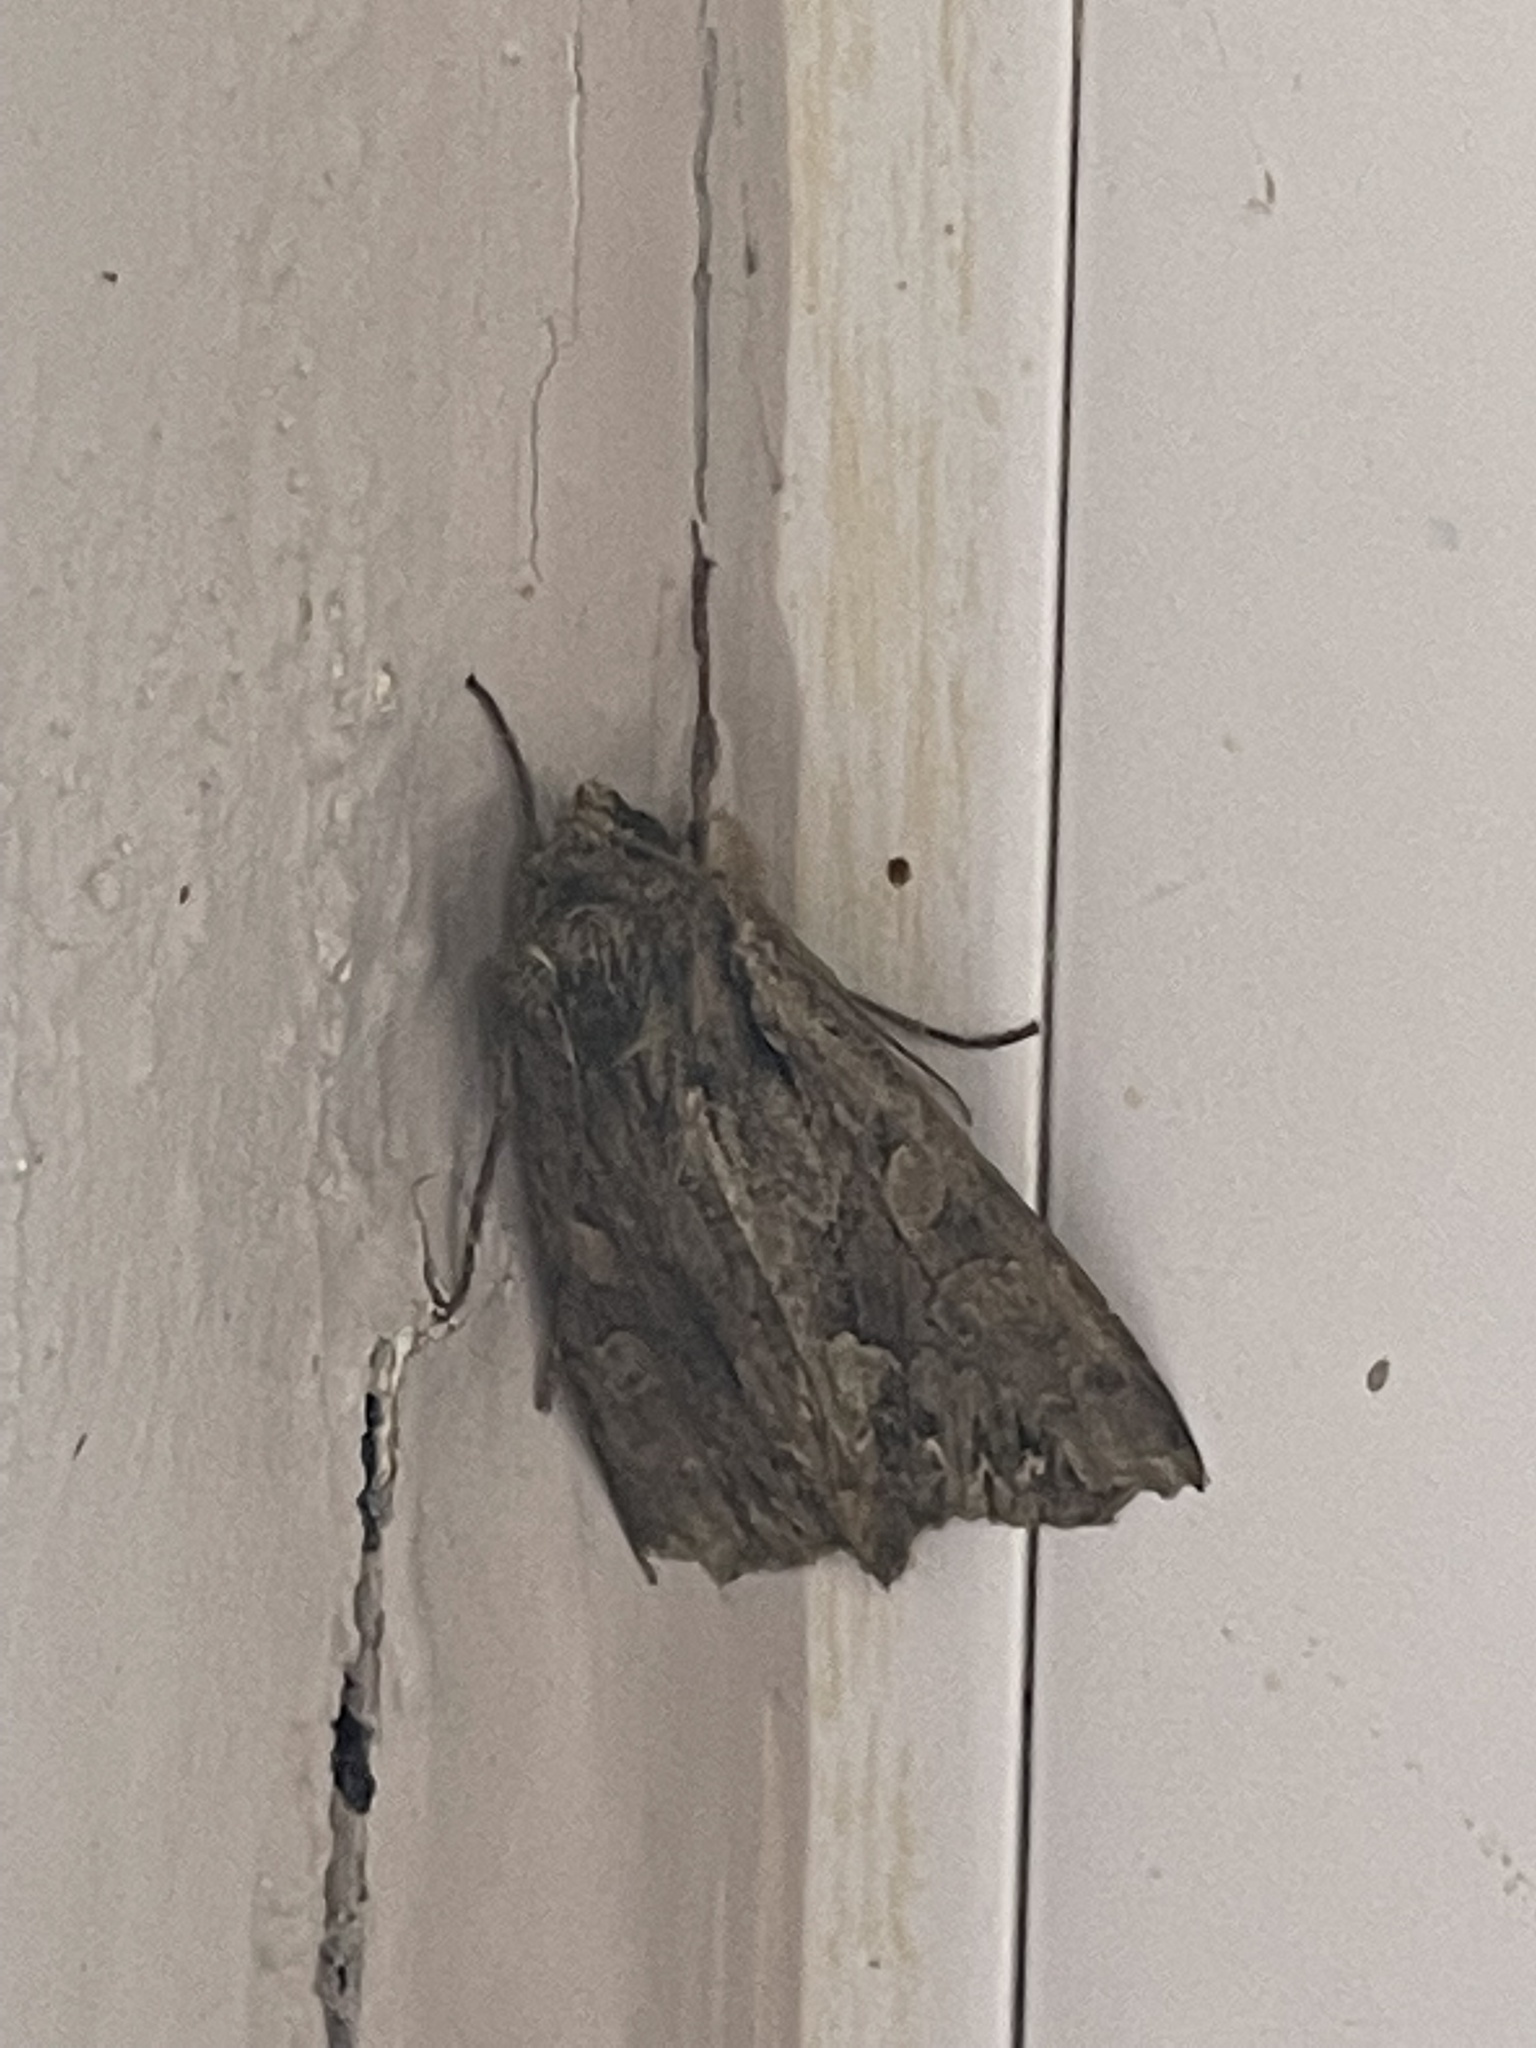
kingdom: Animalia
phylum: Arthropoda
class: Insecta
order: Lepidoptera
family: Noctuidae
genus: Apamea
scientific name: Apamea monoglypha
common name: Dark arches
